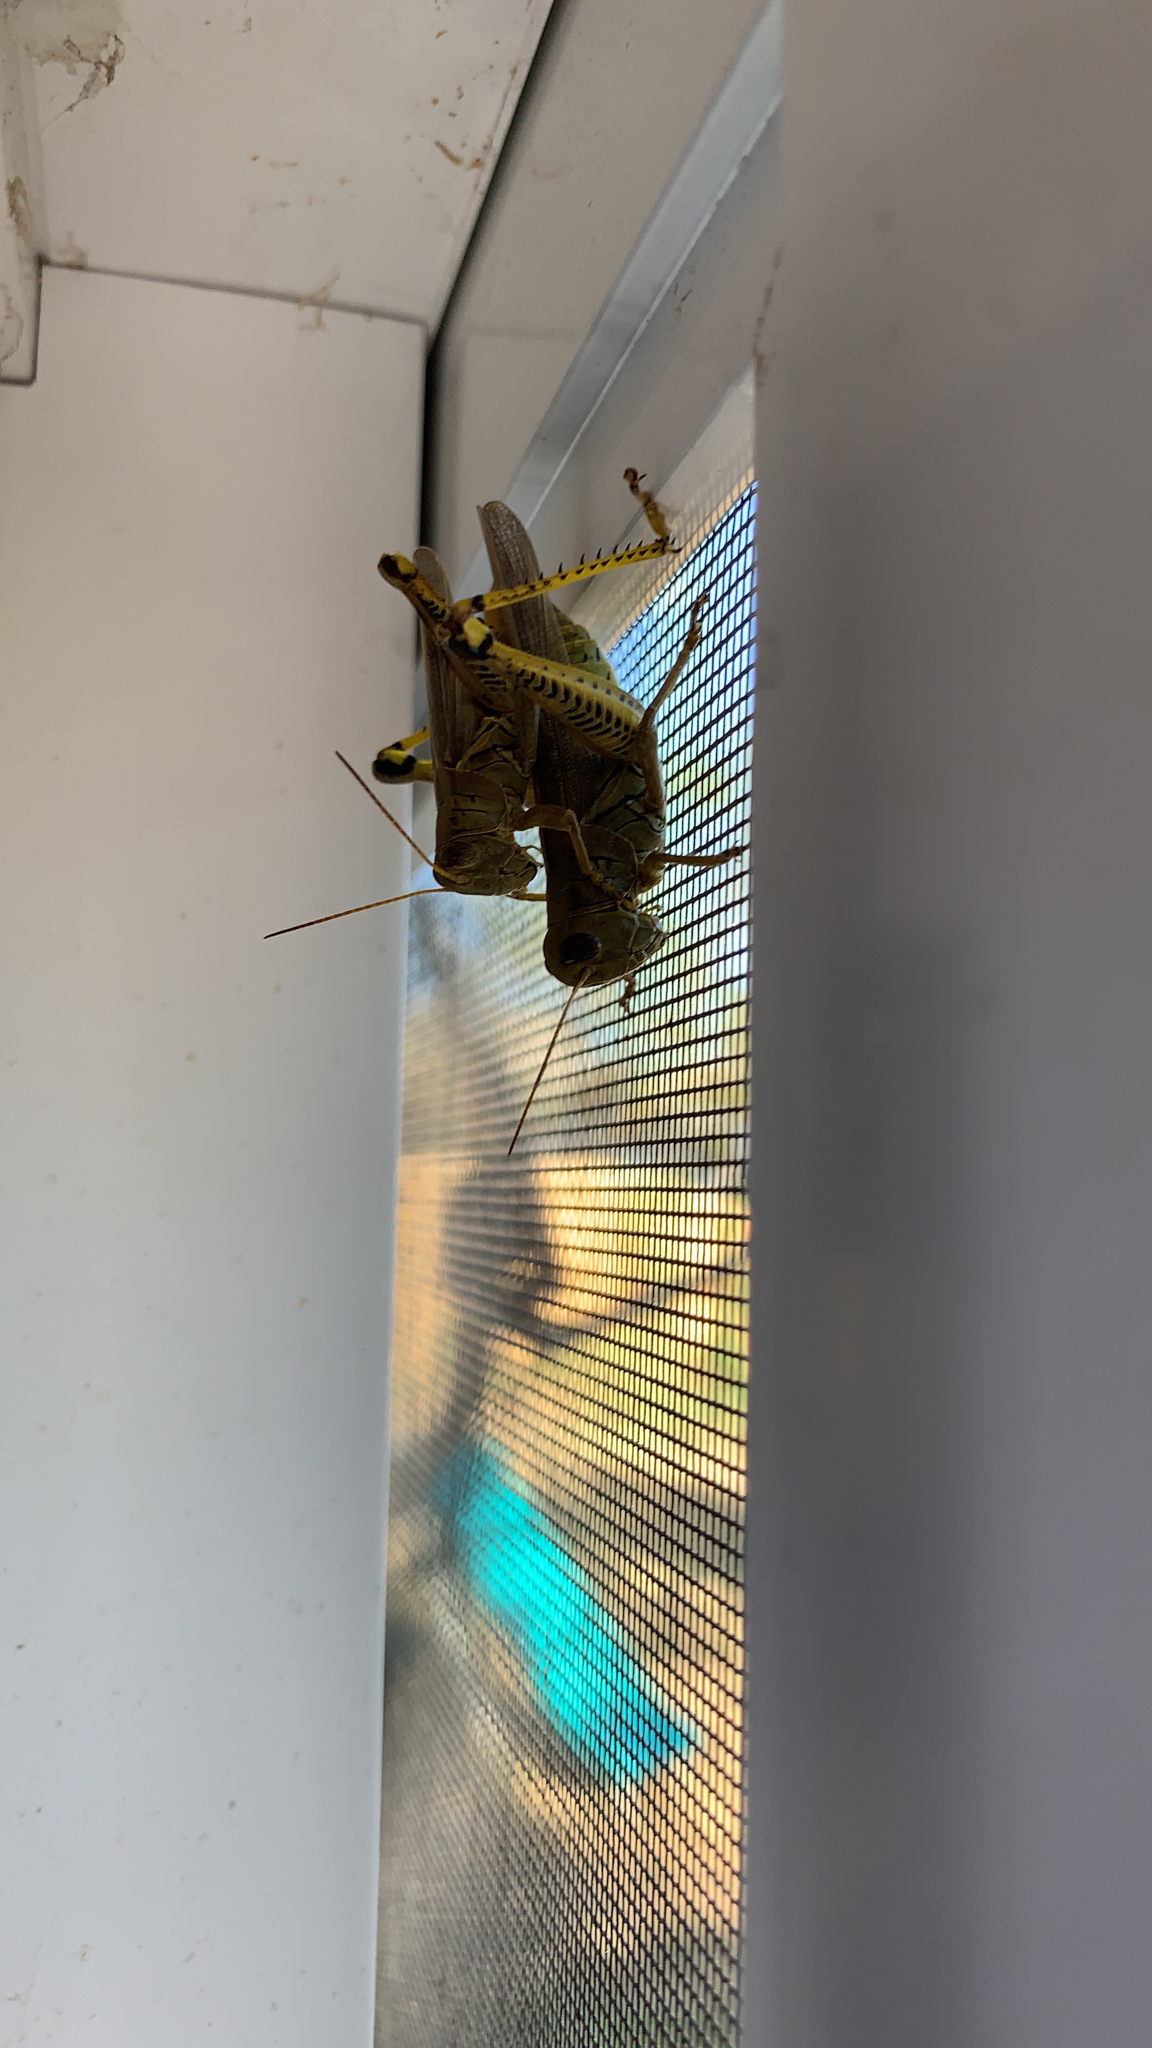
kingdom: Animalia
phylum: Arthropoda
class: Insecta
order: Orthoptera
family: Acrididae
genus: Melanoplus
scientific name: Melanoplus differentialis
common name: Differential grasshopper
